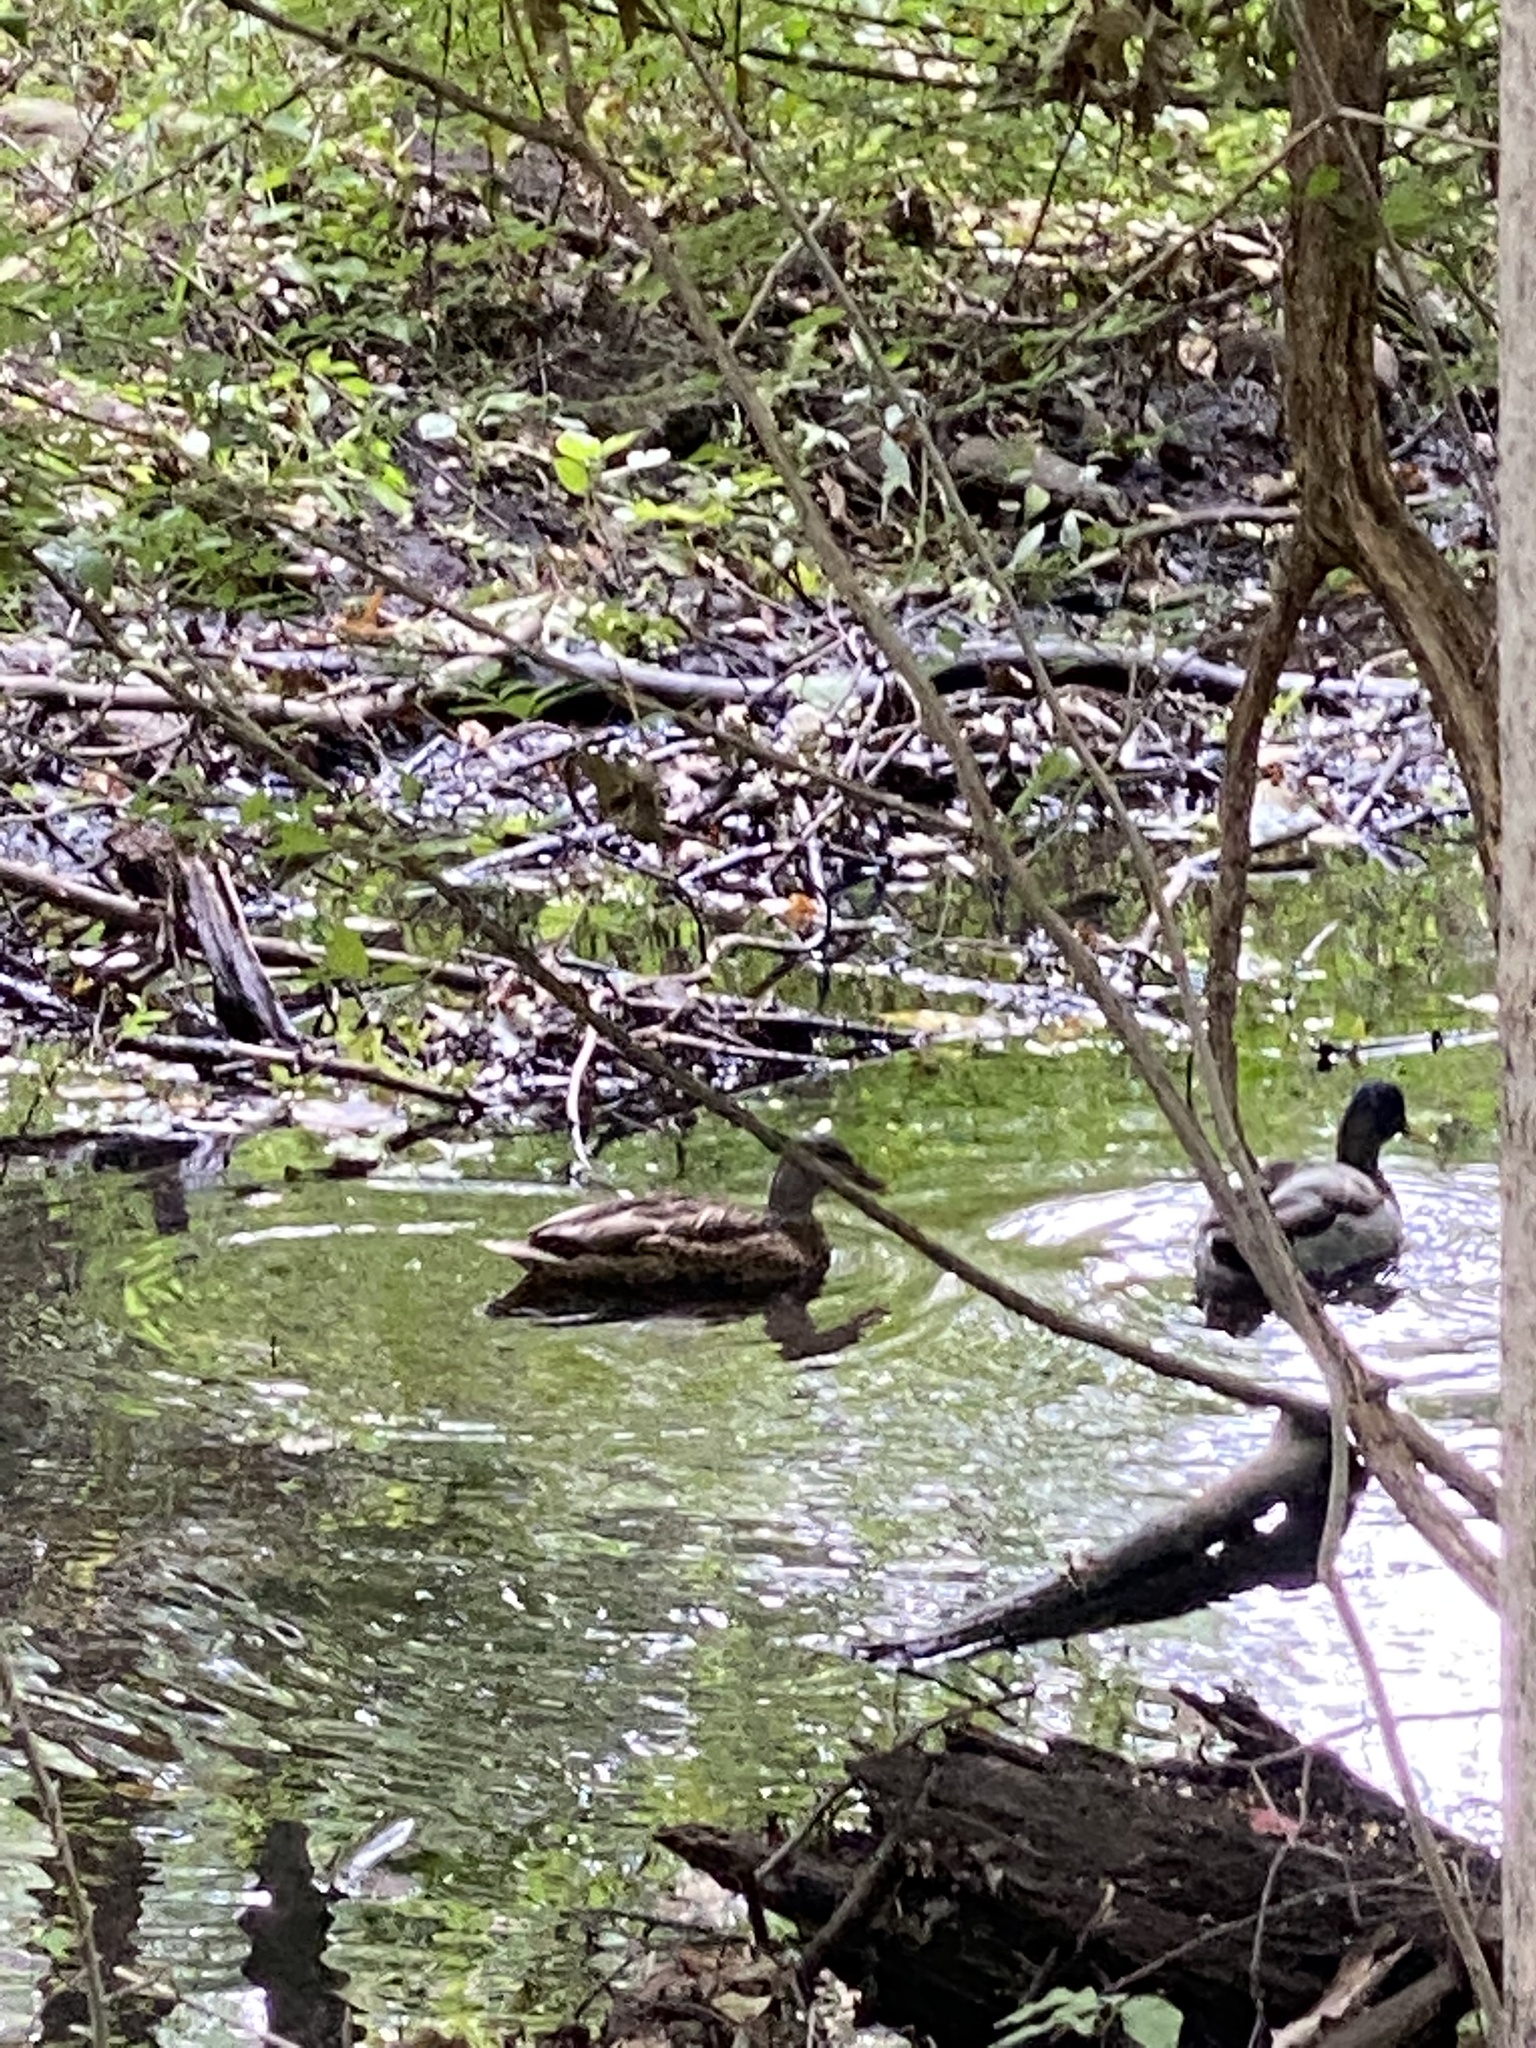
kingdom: Animalia
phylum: Chordata
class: Aves
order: Anseriformes
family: Anatidae
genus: Anas
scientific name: Anas platyrhynchos
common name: Mallard
